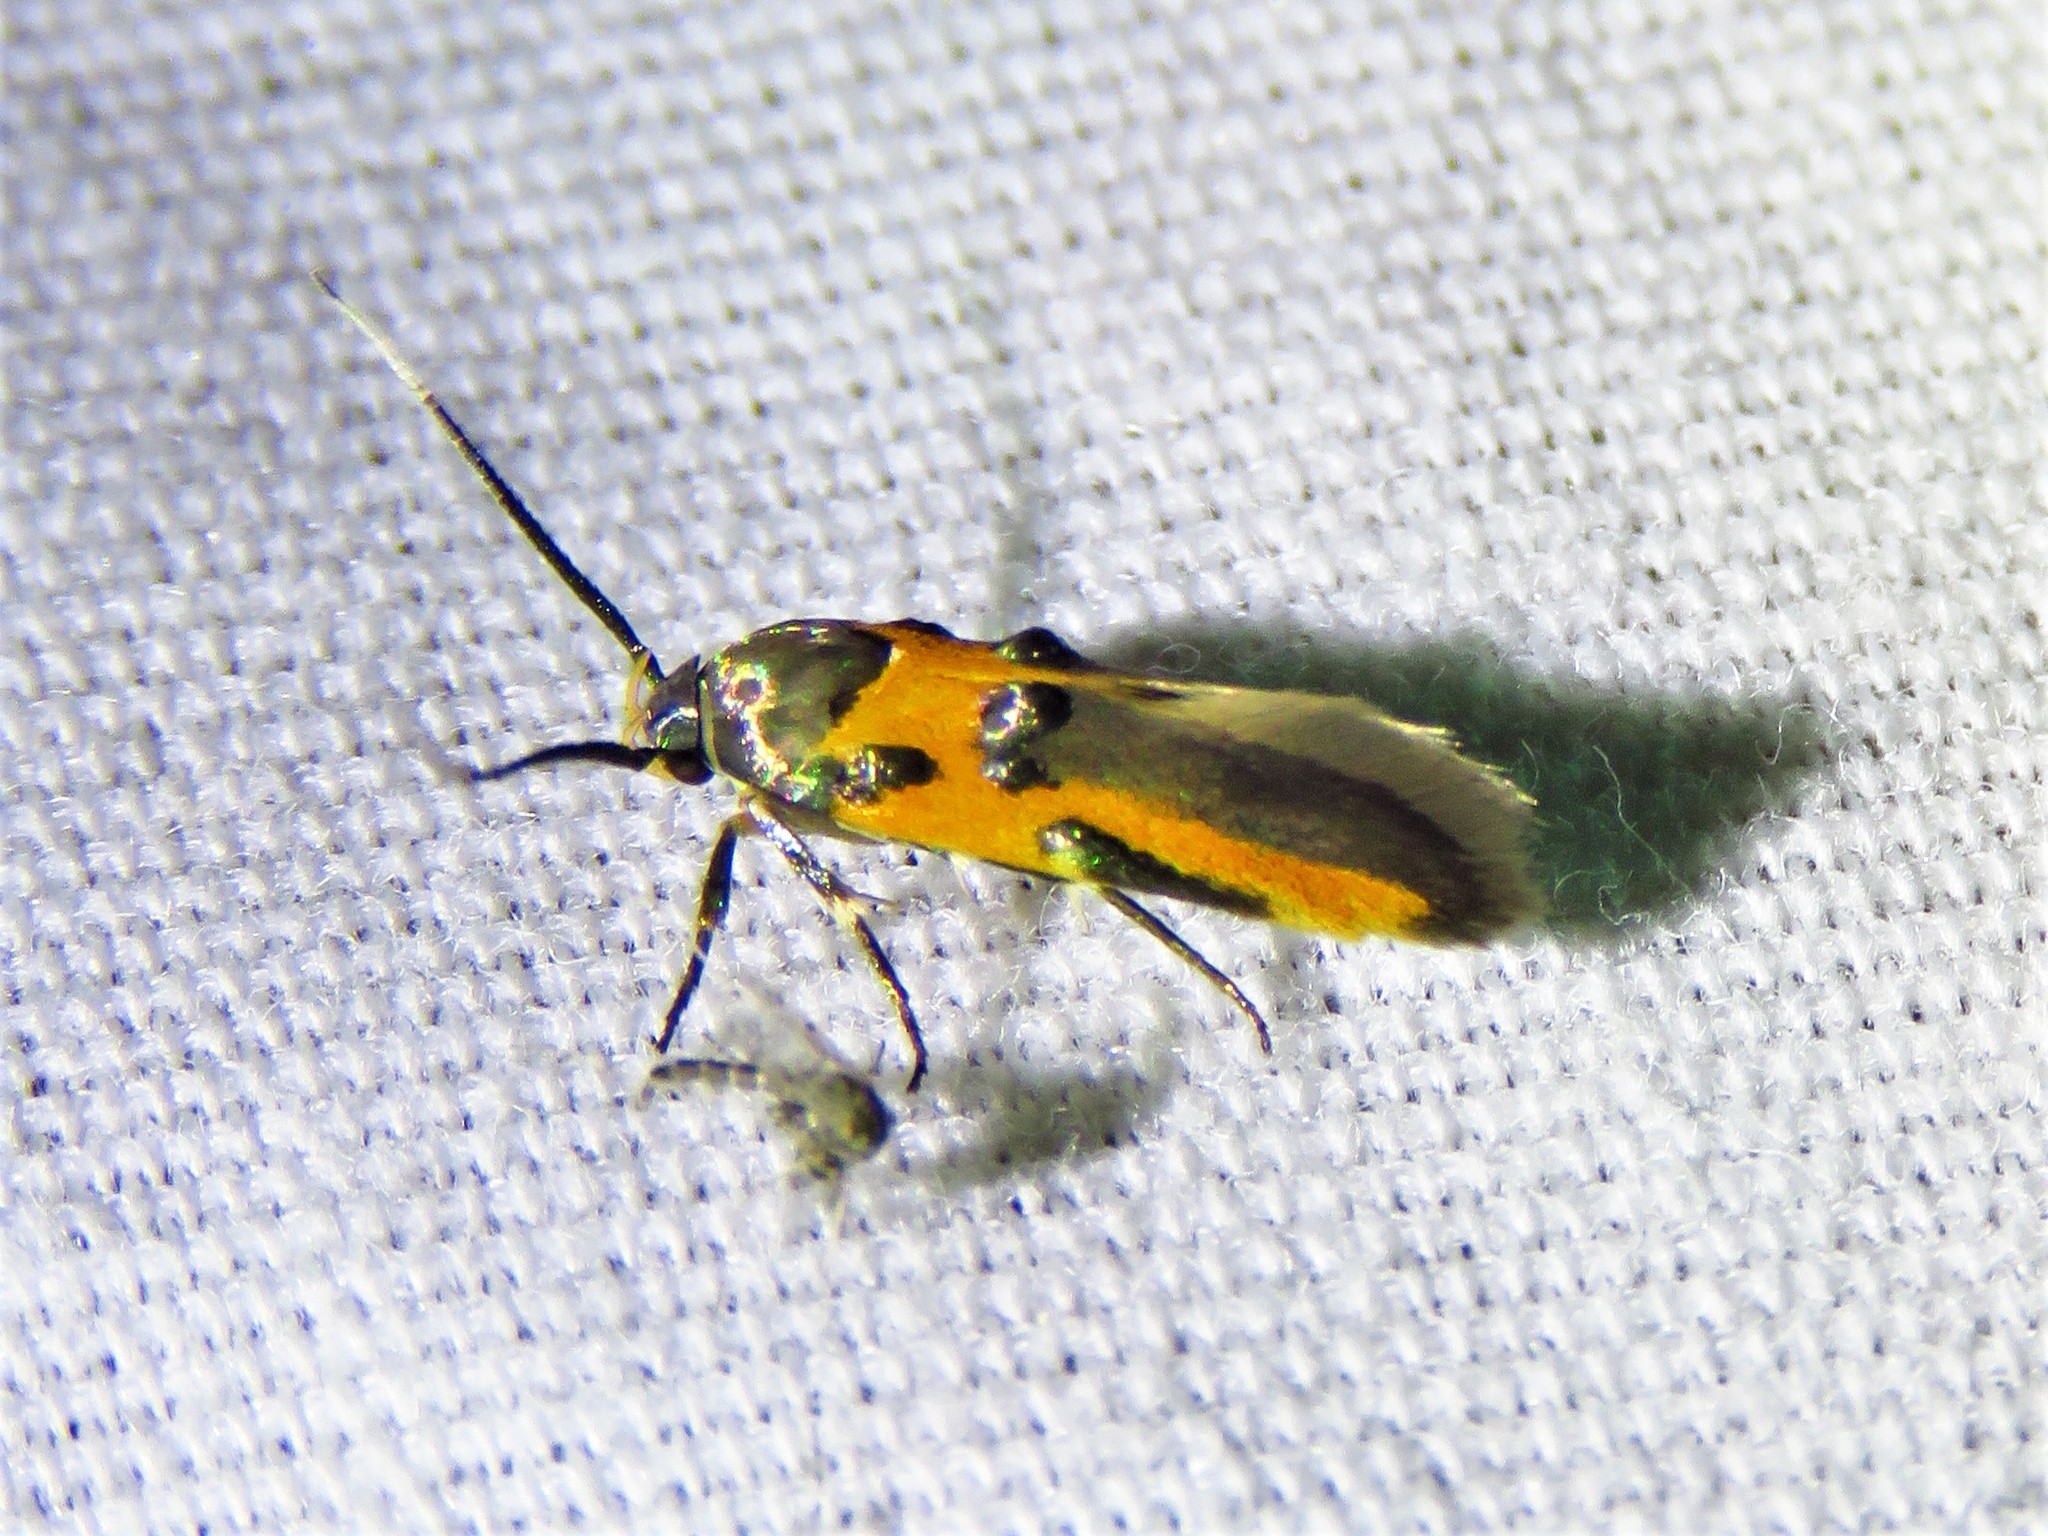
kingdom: Animalia
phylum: Arthropoda
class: Insecta
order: Lepidoptera
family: Cosmopterigidae
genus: Euclemensia
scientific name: Euclemensia bassettella
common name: Kermes scale moth
